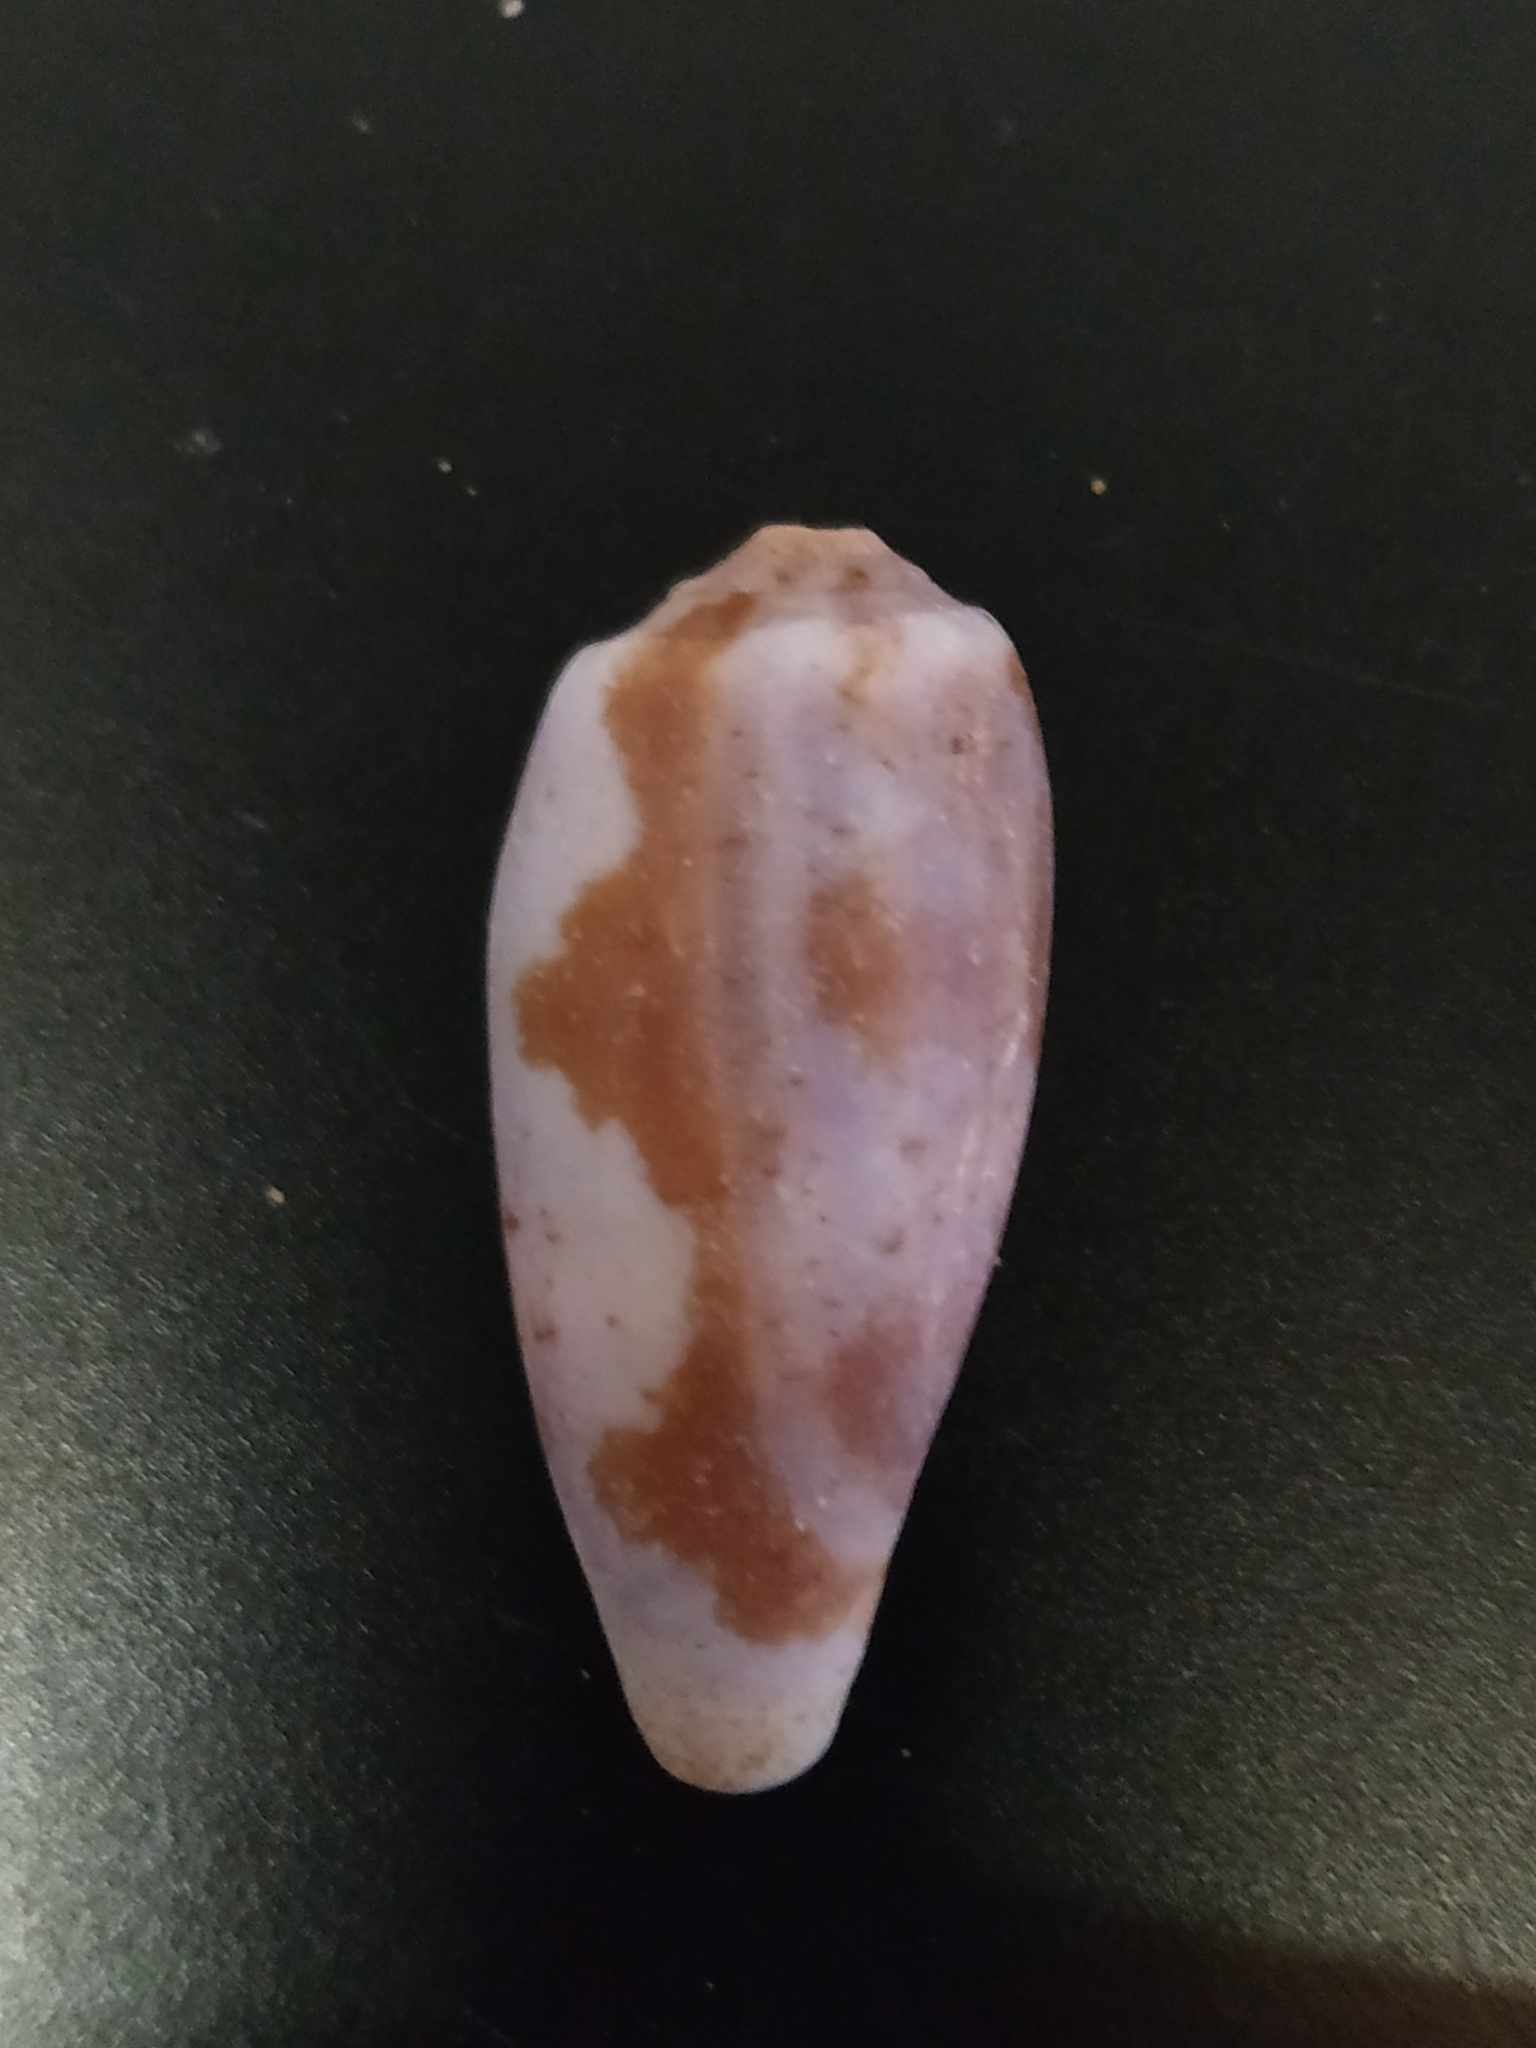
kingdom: Animalia
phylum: Mollusca
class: Gastropoda
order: Neogastropoda
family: Conidae
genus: Conus
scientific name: Conus tulipa
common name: Tulip cone
